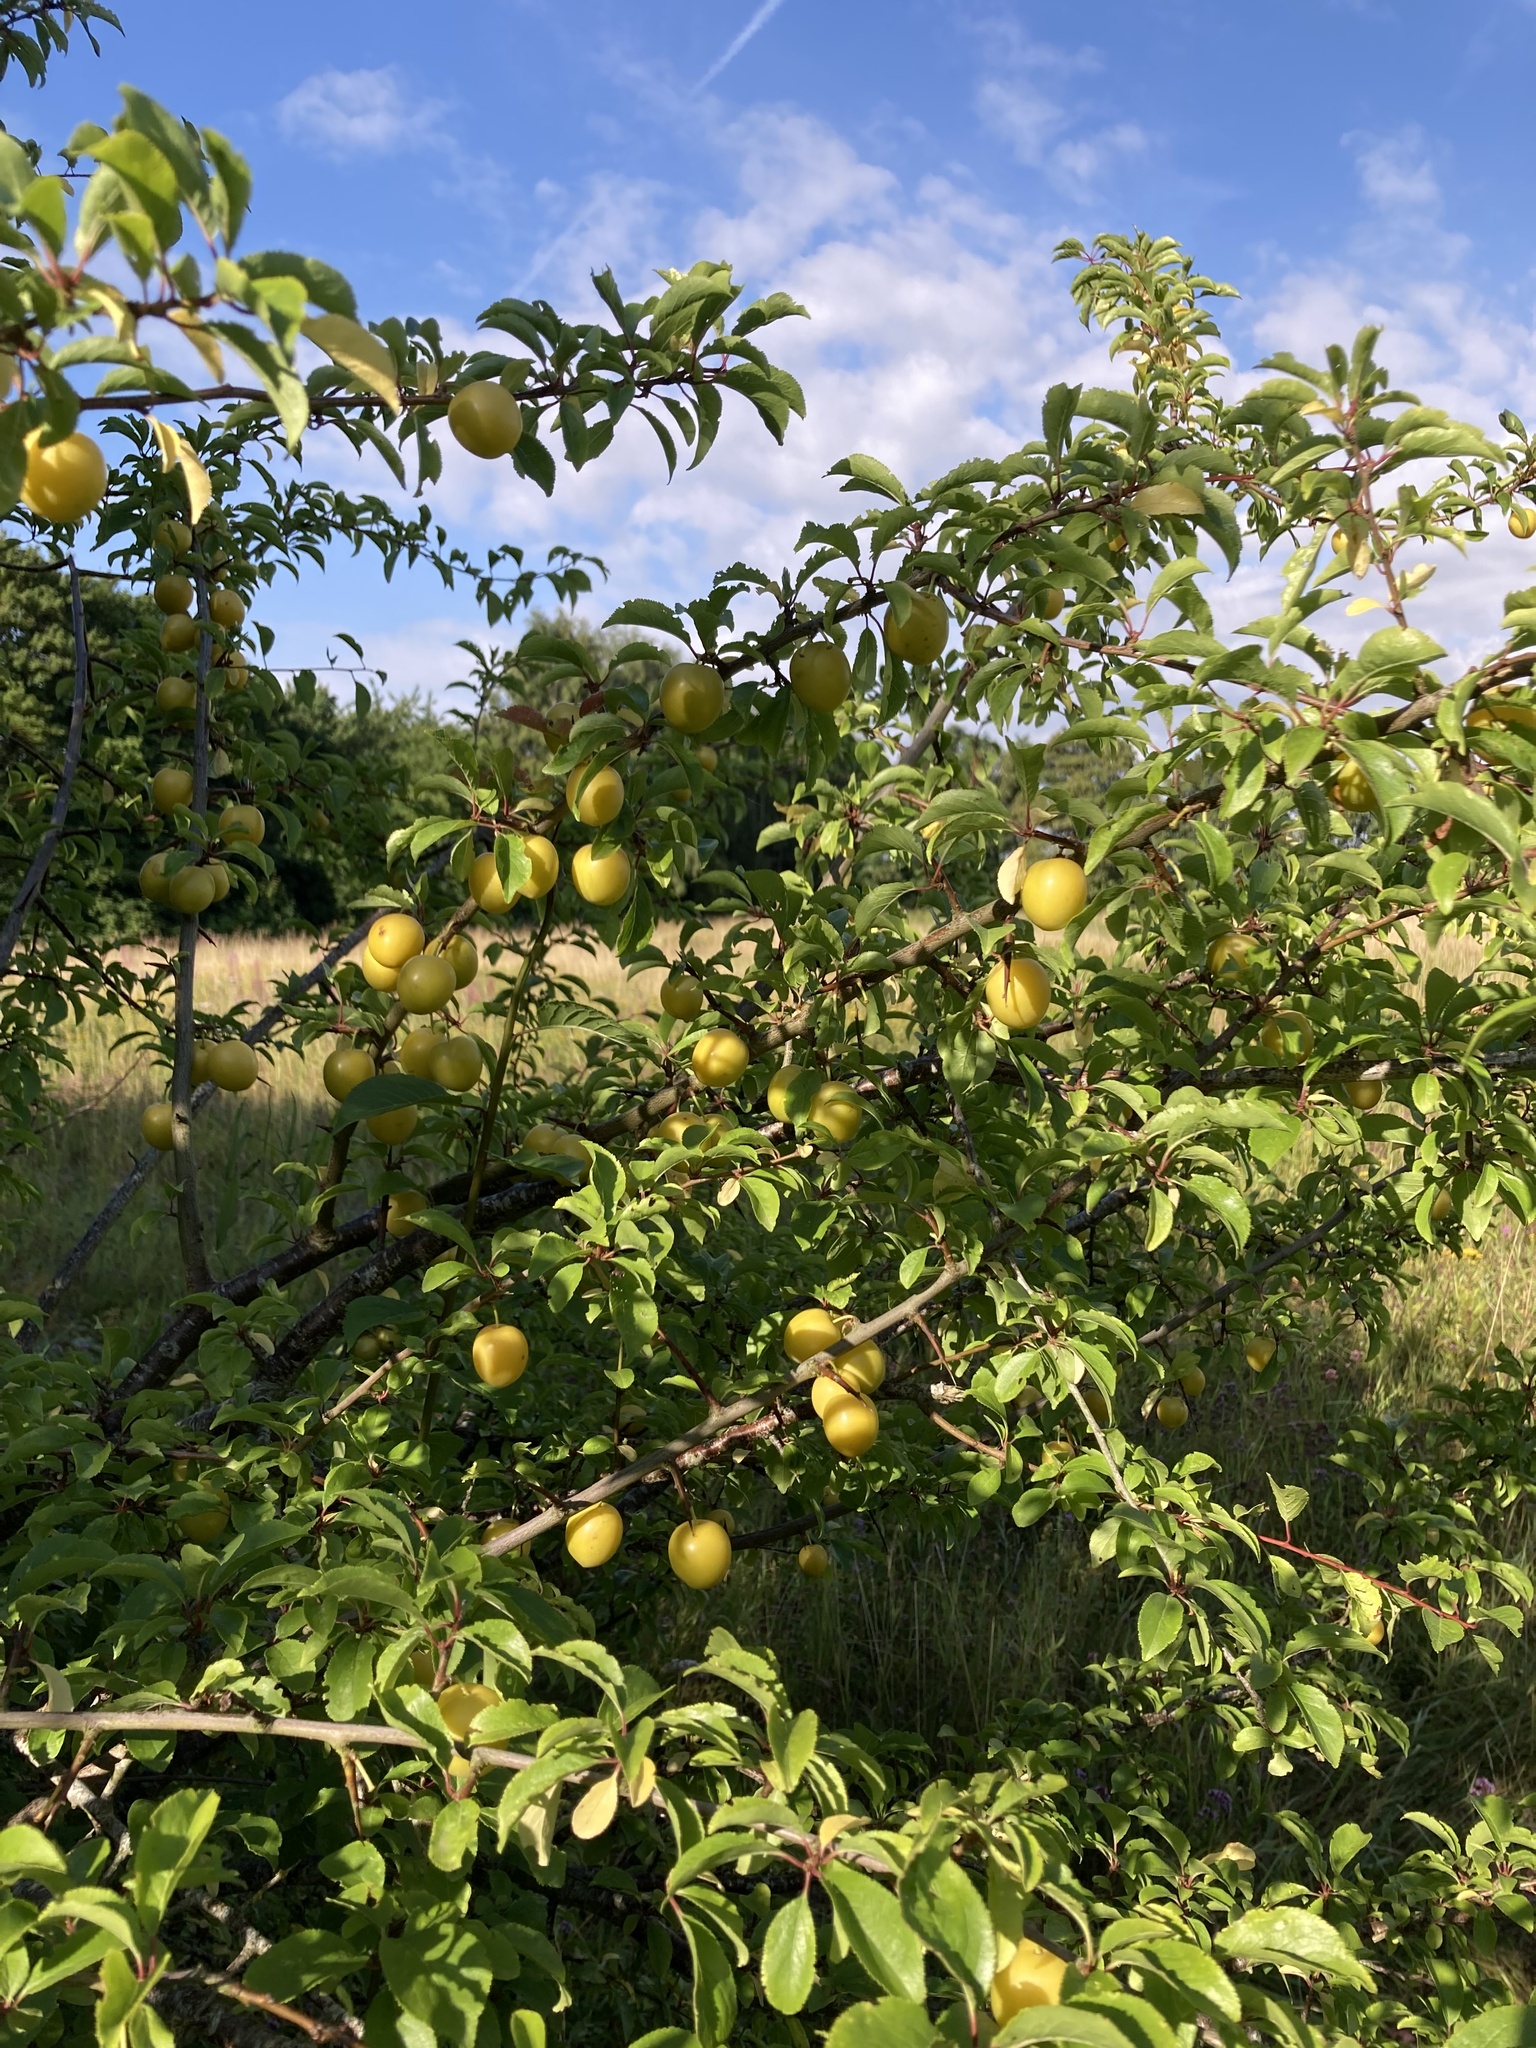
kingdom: Plantae
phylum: Tracheophyta
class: Magnoliopsida
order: Rosales
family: Rosaceae
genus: Prunus
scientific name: Prunus cerasifera
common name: Cherry plum
